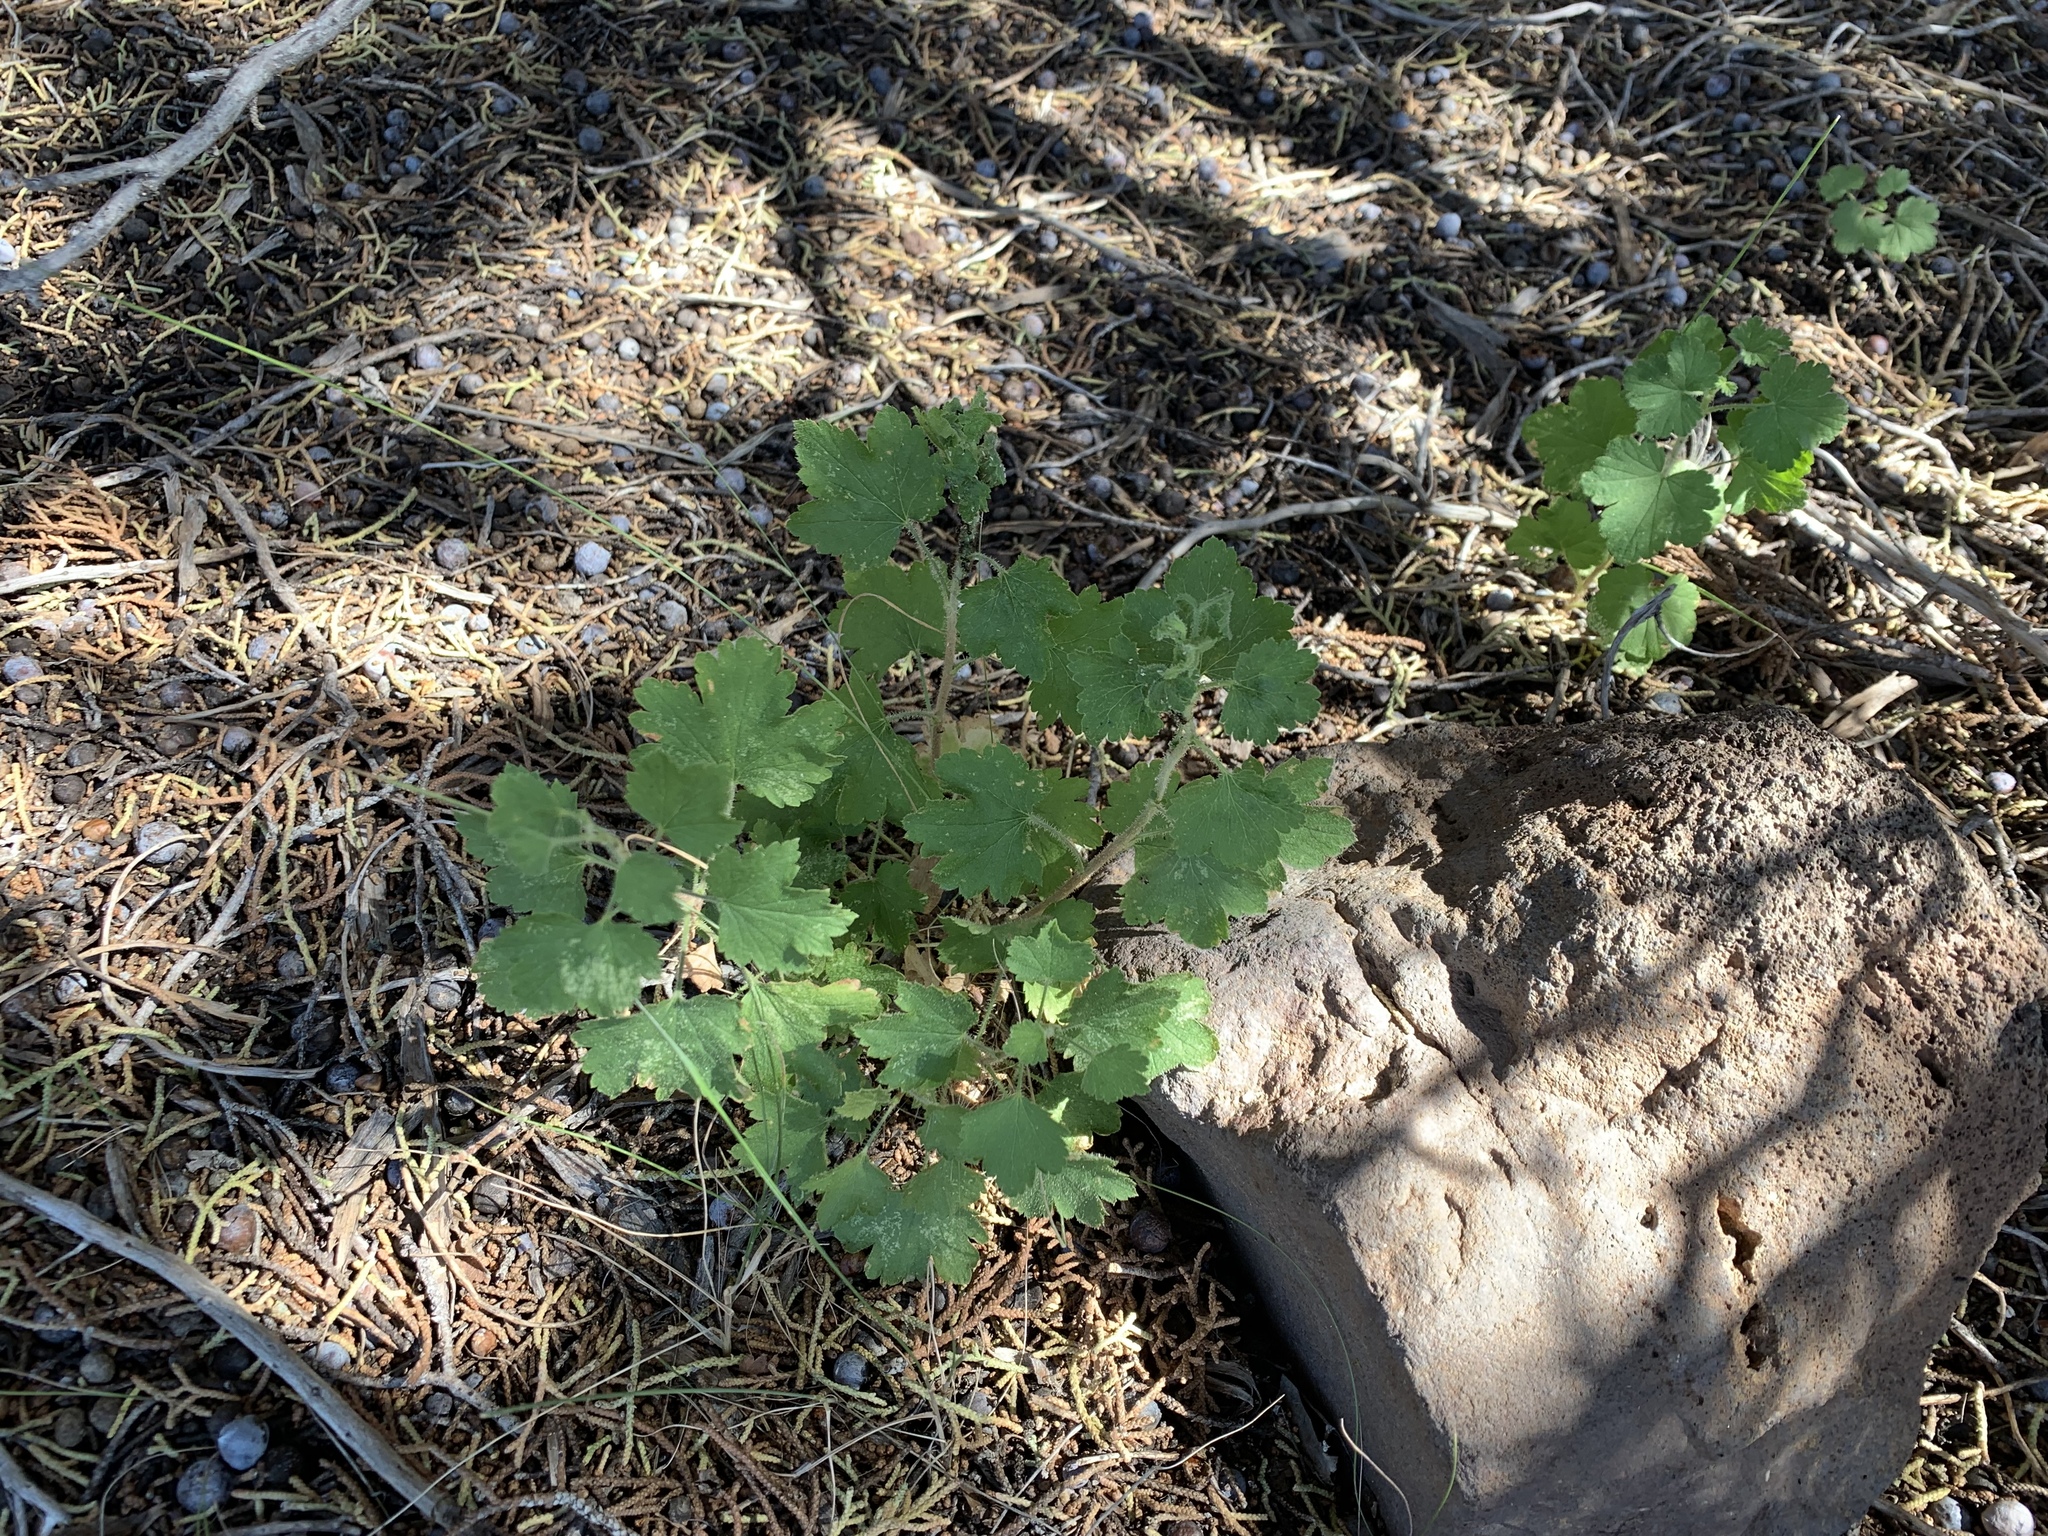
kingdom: Plantae
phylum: Tracheophyta
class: Magnoliopsida
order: Saxifragales
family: Grossulariaceae
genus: Ribes
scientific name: Ribes cereum
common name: Wax currant
